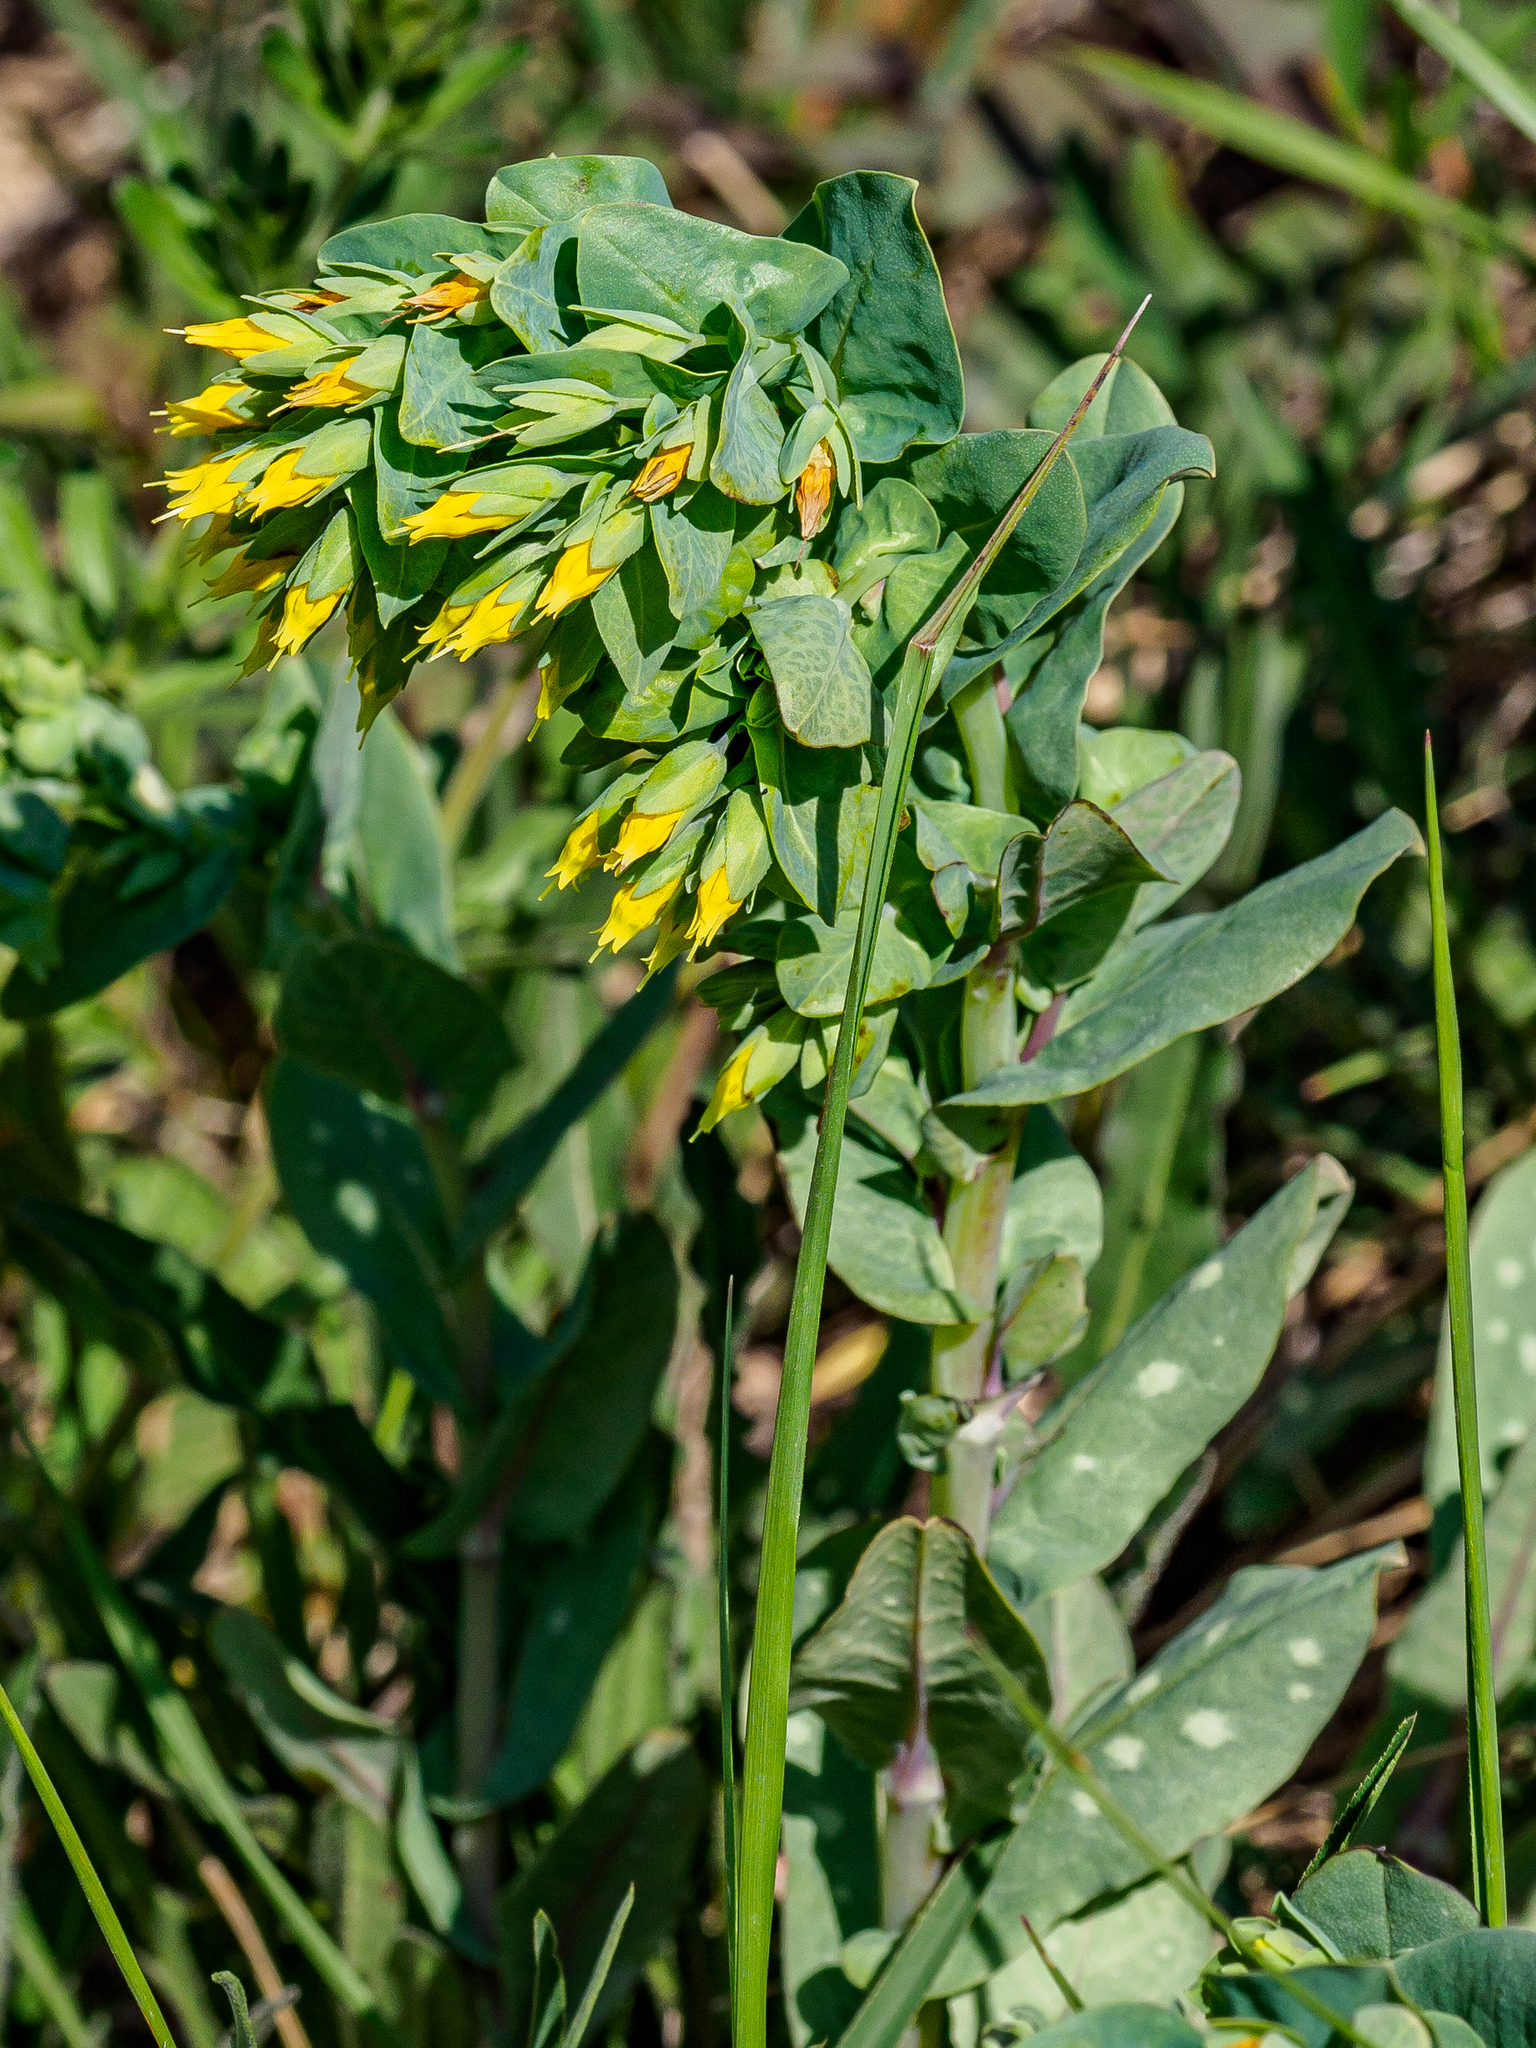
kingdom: Plantae
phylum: Tracheophyta
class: Magnoliopsida
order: Boraginales
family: Boraginaceae
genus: Cerinthe
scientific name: Cerinthe minor
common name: Lesser honeywort
